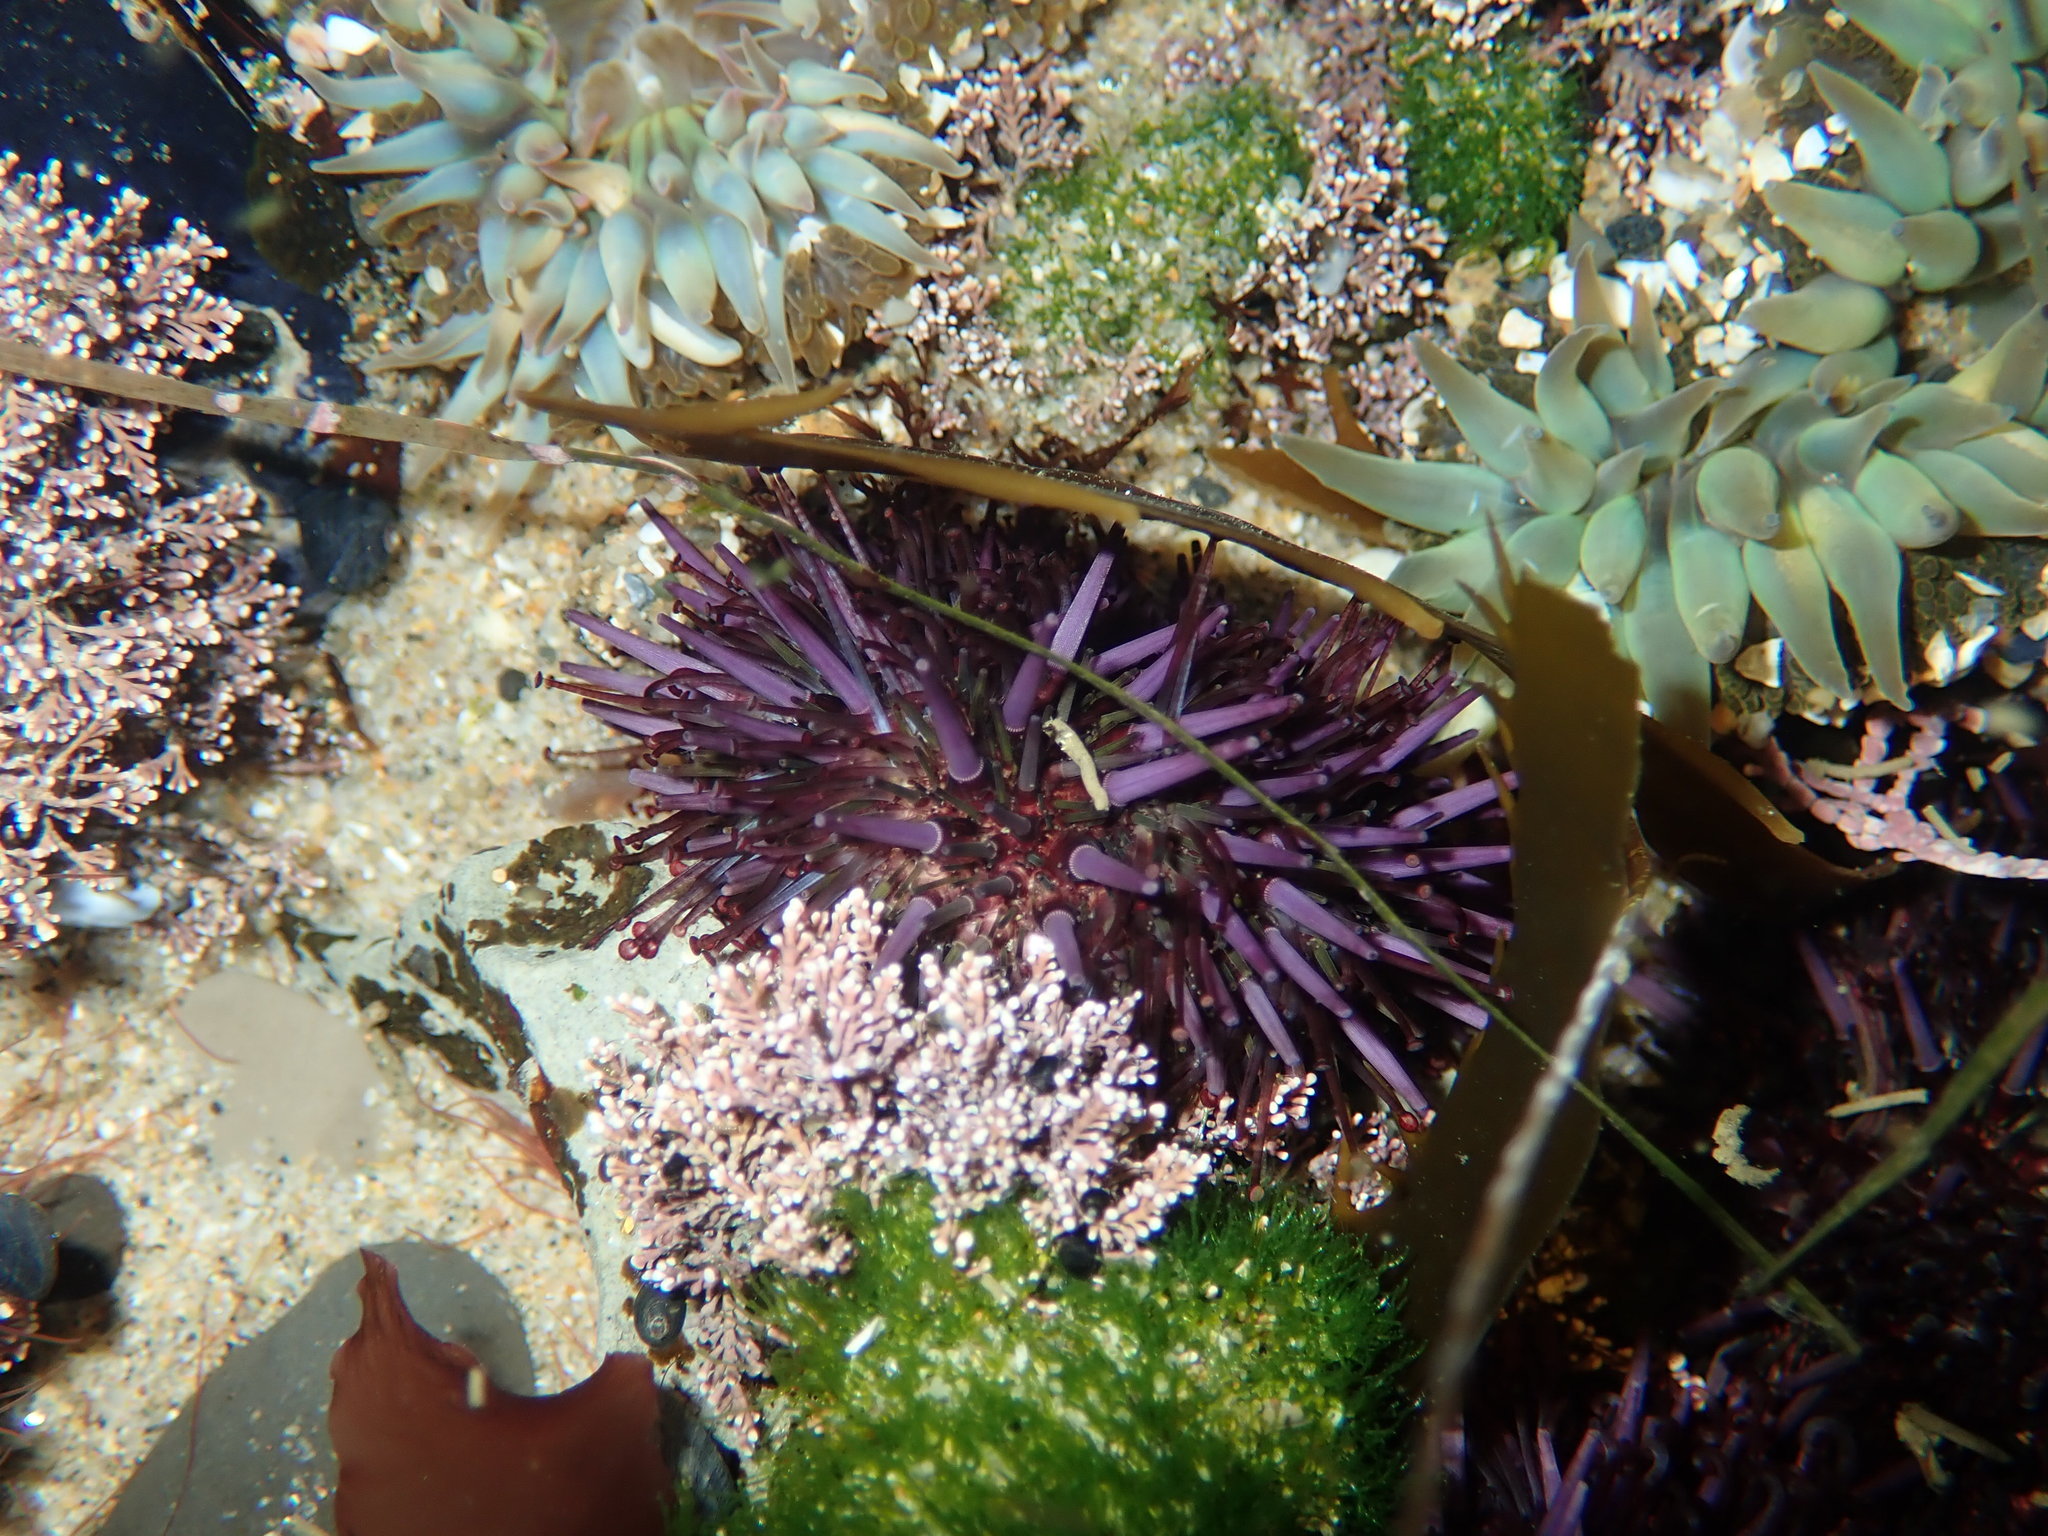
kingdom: Animalia
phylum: Echinodermata
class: Echinoidea
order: Camarodonta
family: Strongylocentrotidae
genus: Strongylocentrotus
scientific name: Strongylocentrotus purpuratus
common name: Purple sea urchin
